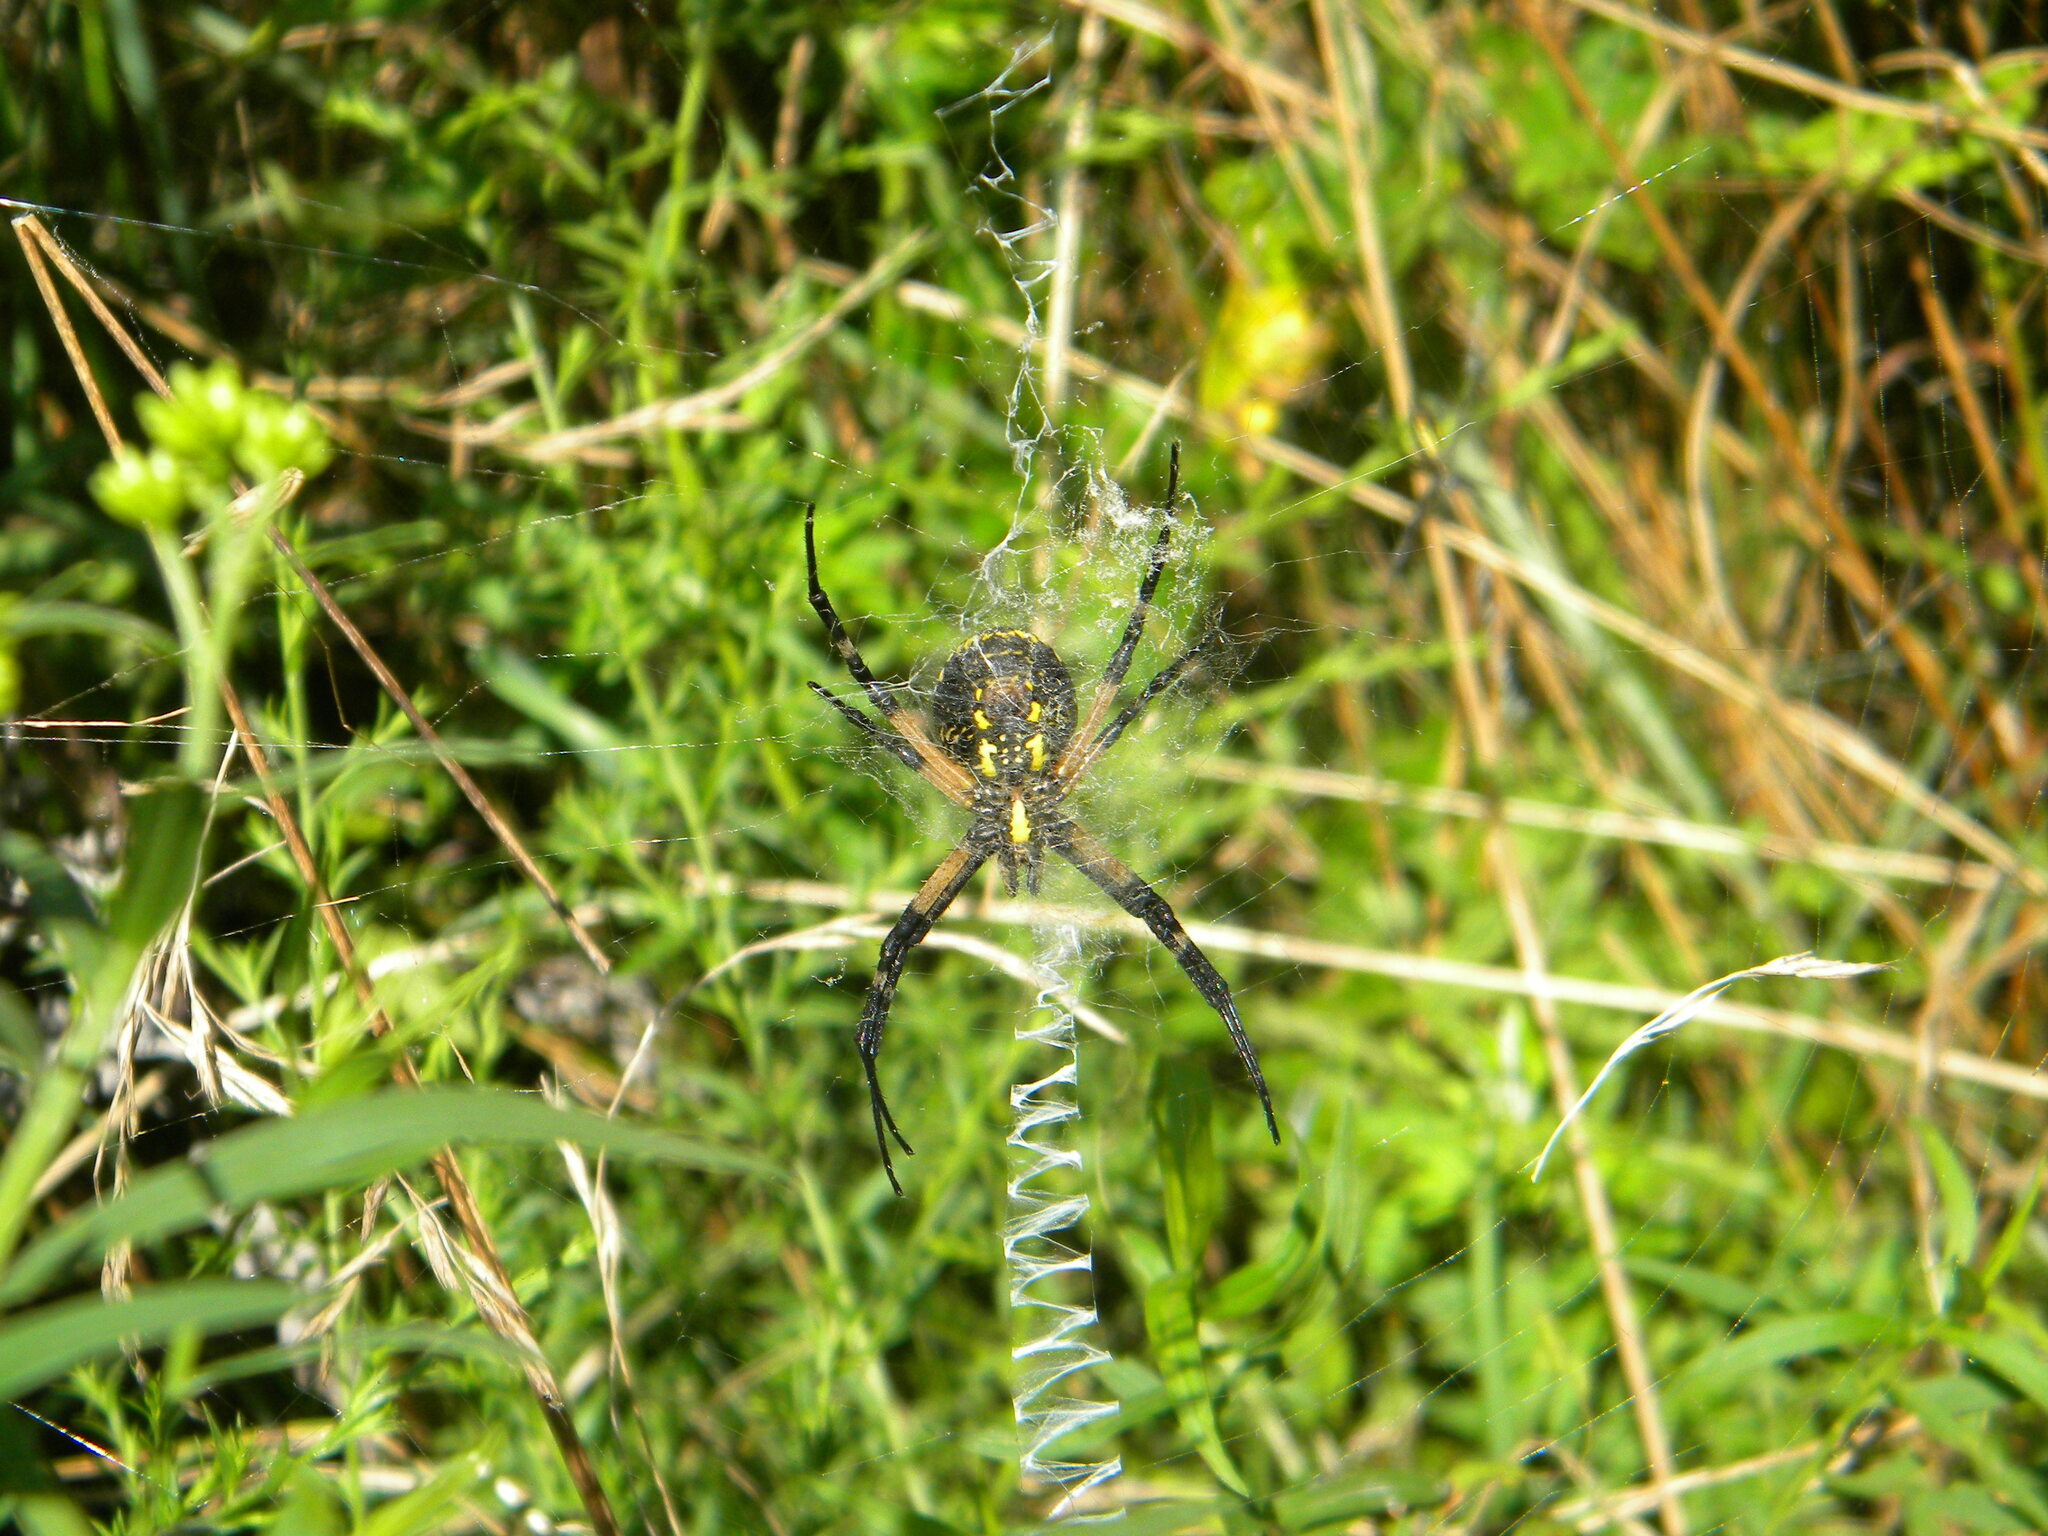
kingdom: Animalia
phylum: Arthropoda
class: Arachnida
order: Araneae
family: Araneidae
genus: Argiope
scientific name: Argiope aurantia
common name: Orb weavers
